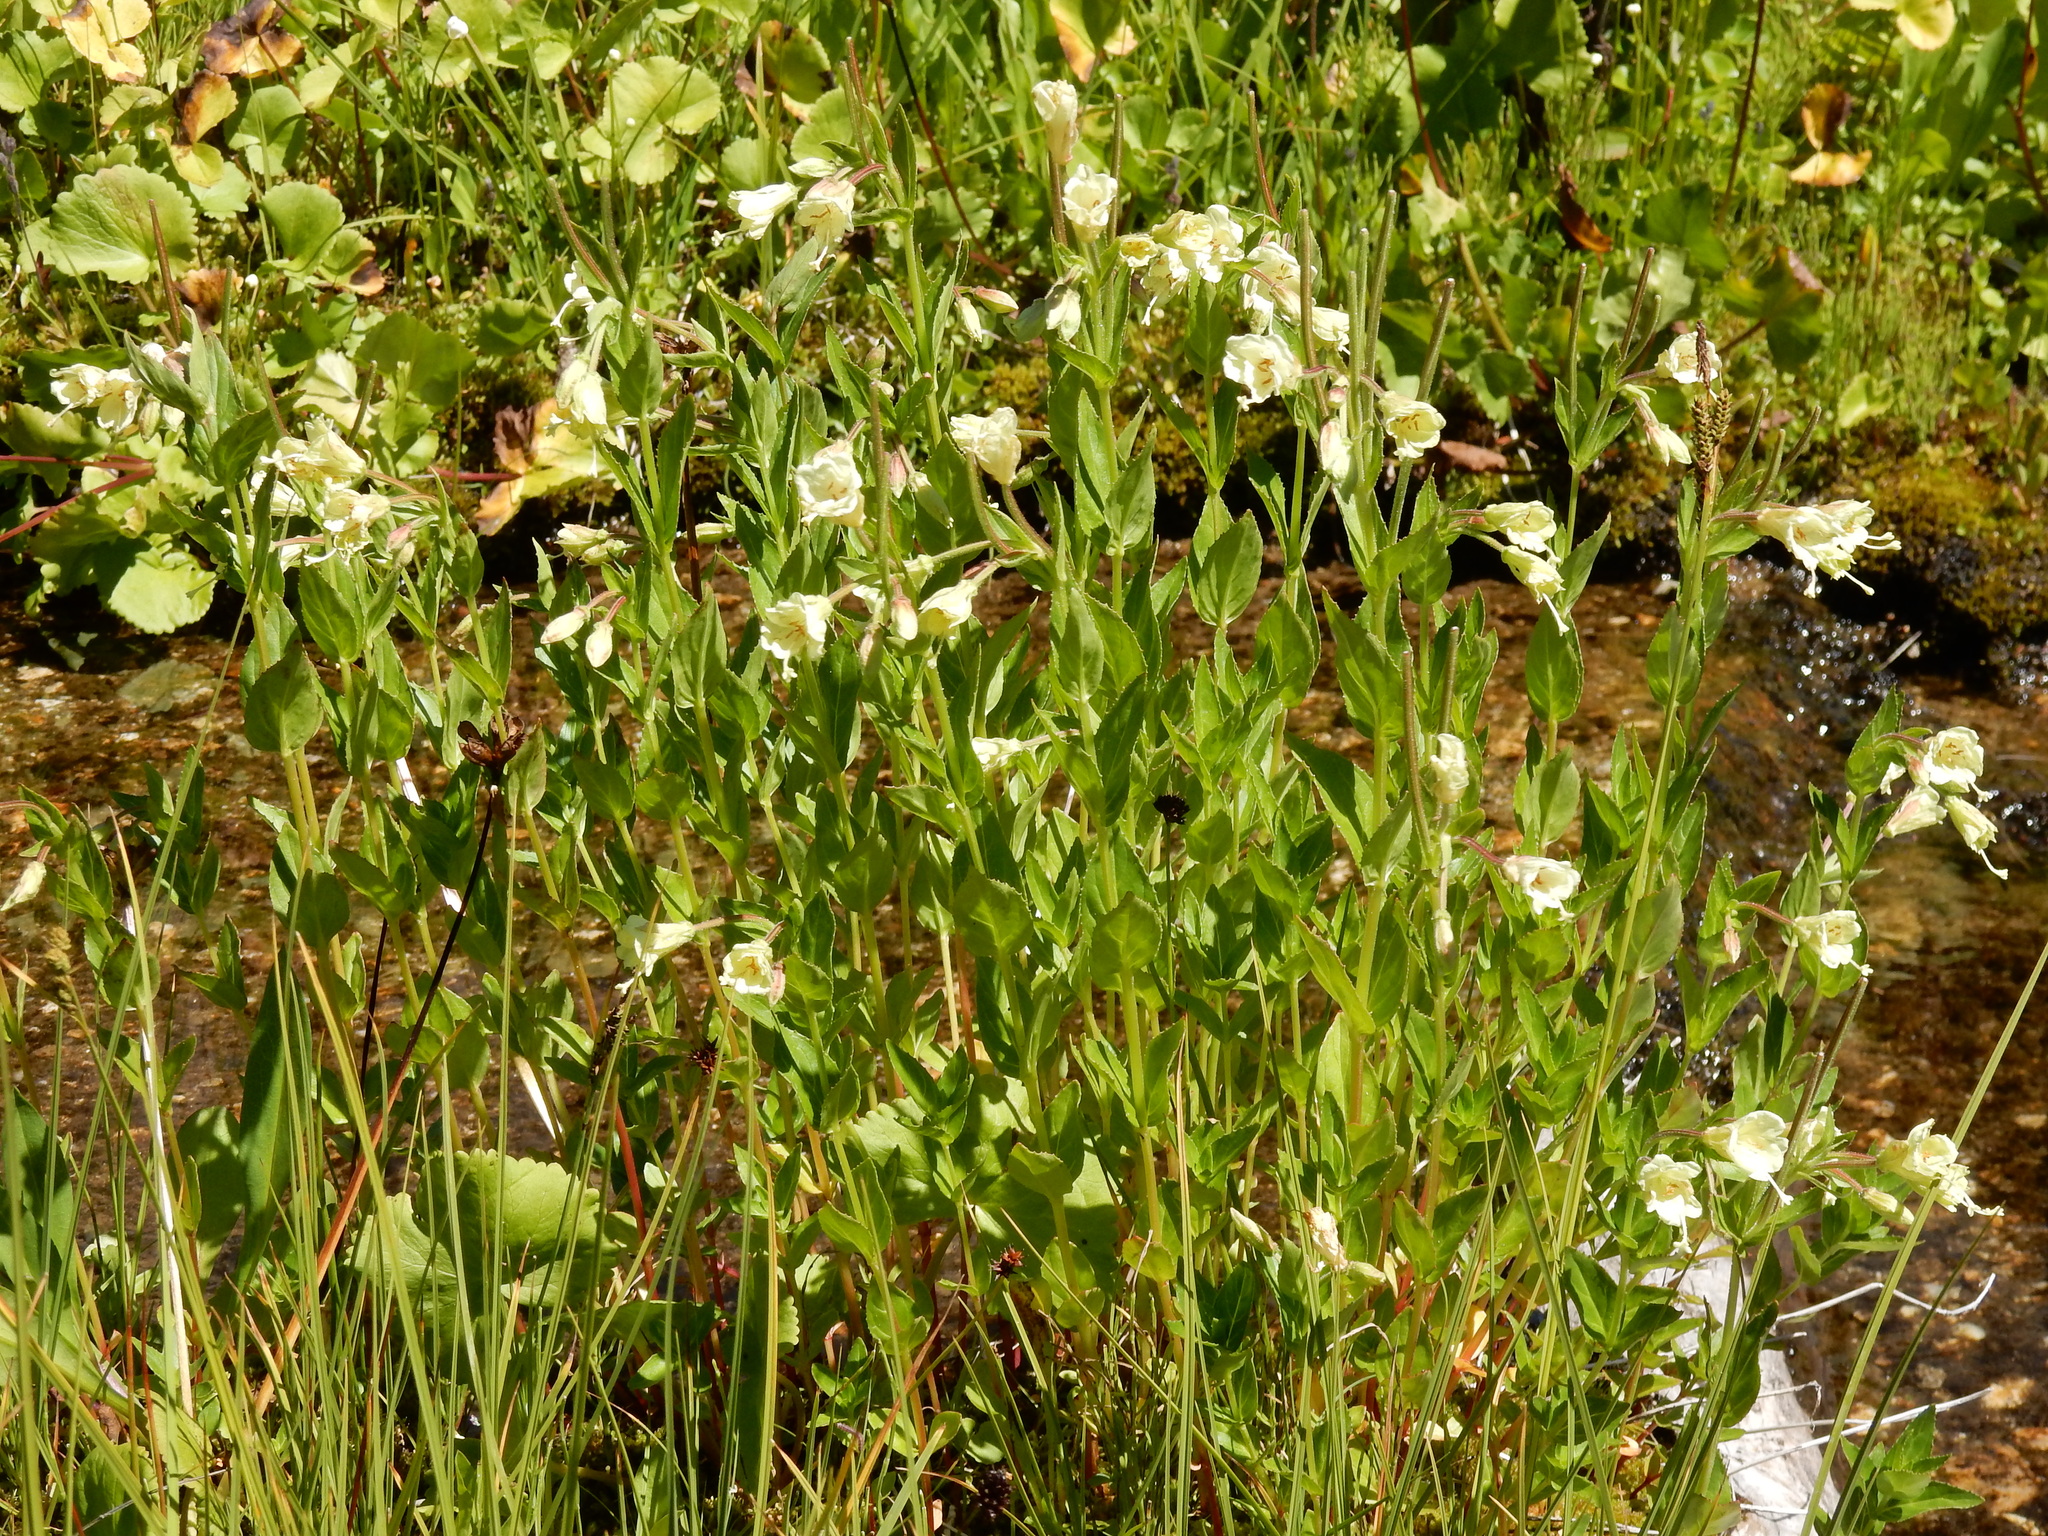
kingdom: Plantae
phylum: Tracheophyta
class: Magnoliopsida
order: Myrtales
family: Onagraceae
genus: Epilobium
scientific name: Epilobium luteum
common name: Yellow willowherb
